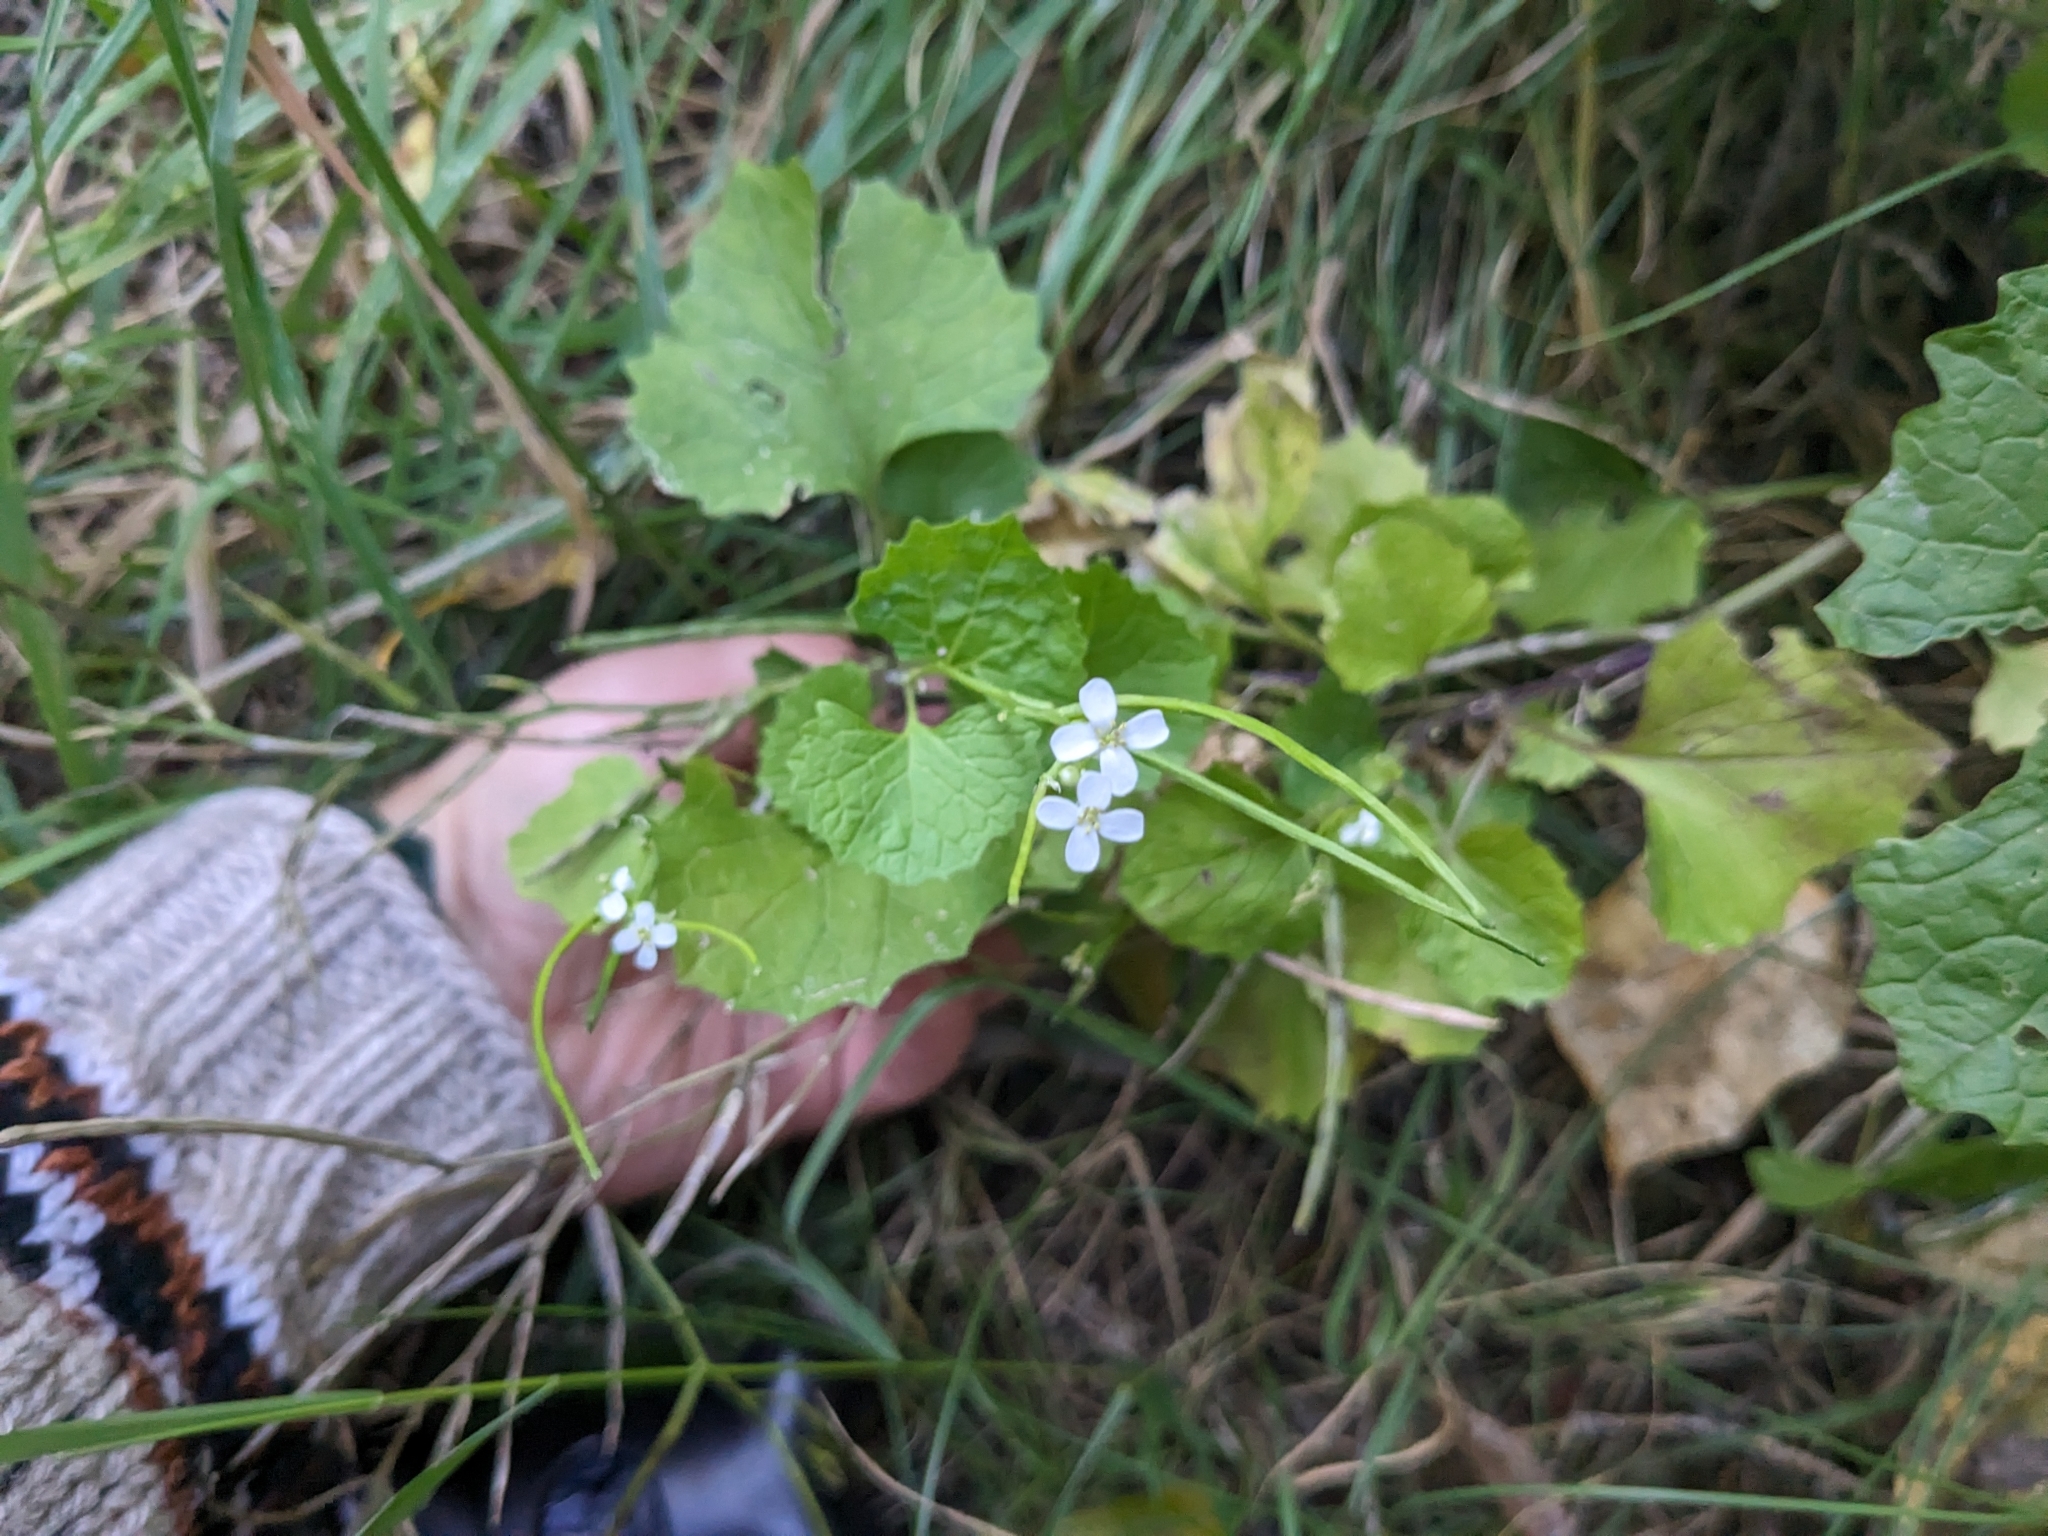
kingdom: Plantae
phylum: Tracheophyta
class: Magnoliopsida
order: Brassicales
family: Brassicaceae
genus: Alliaria
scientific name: Alliaria petiolata
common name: Garlic mustard
